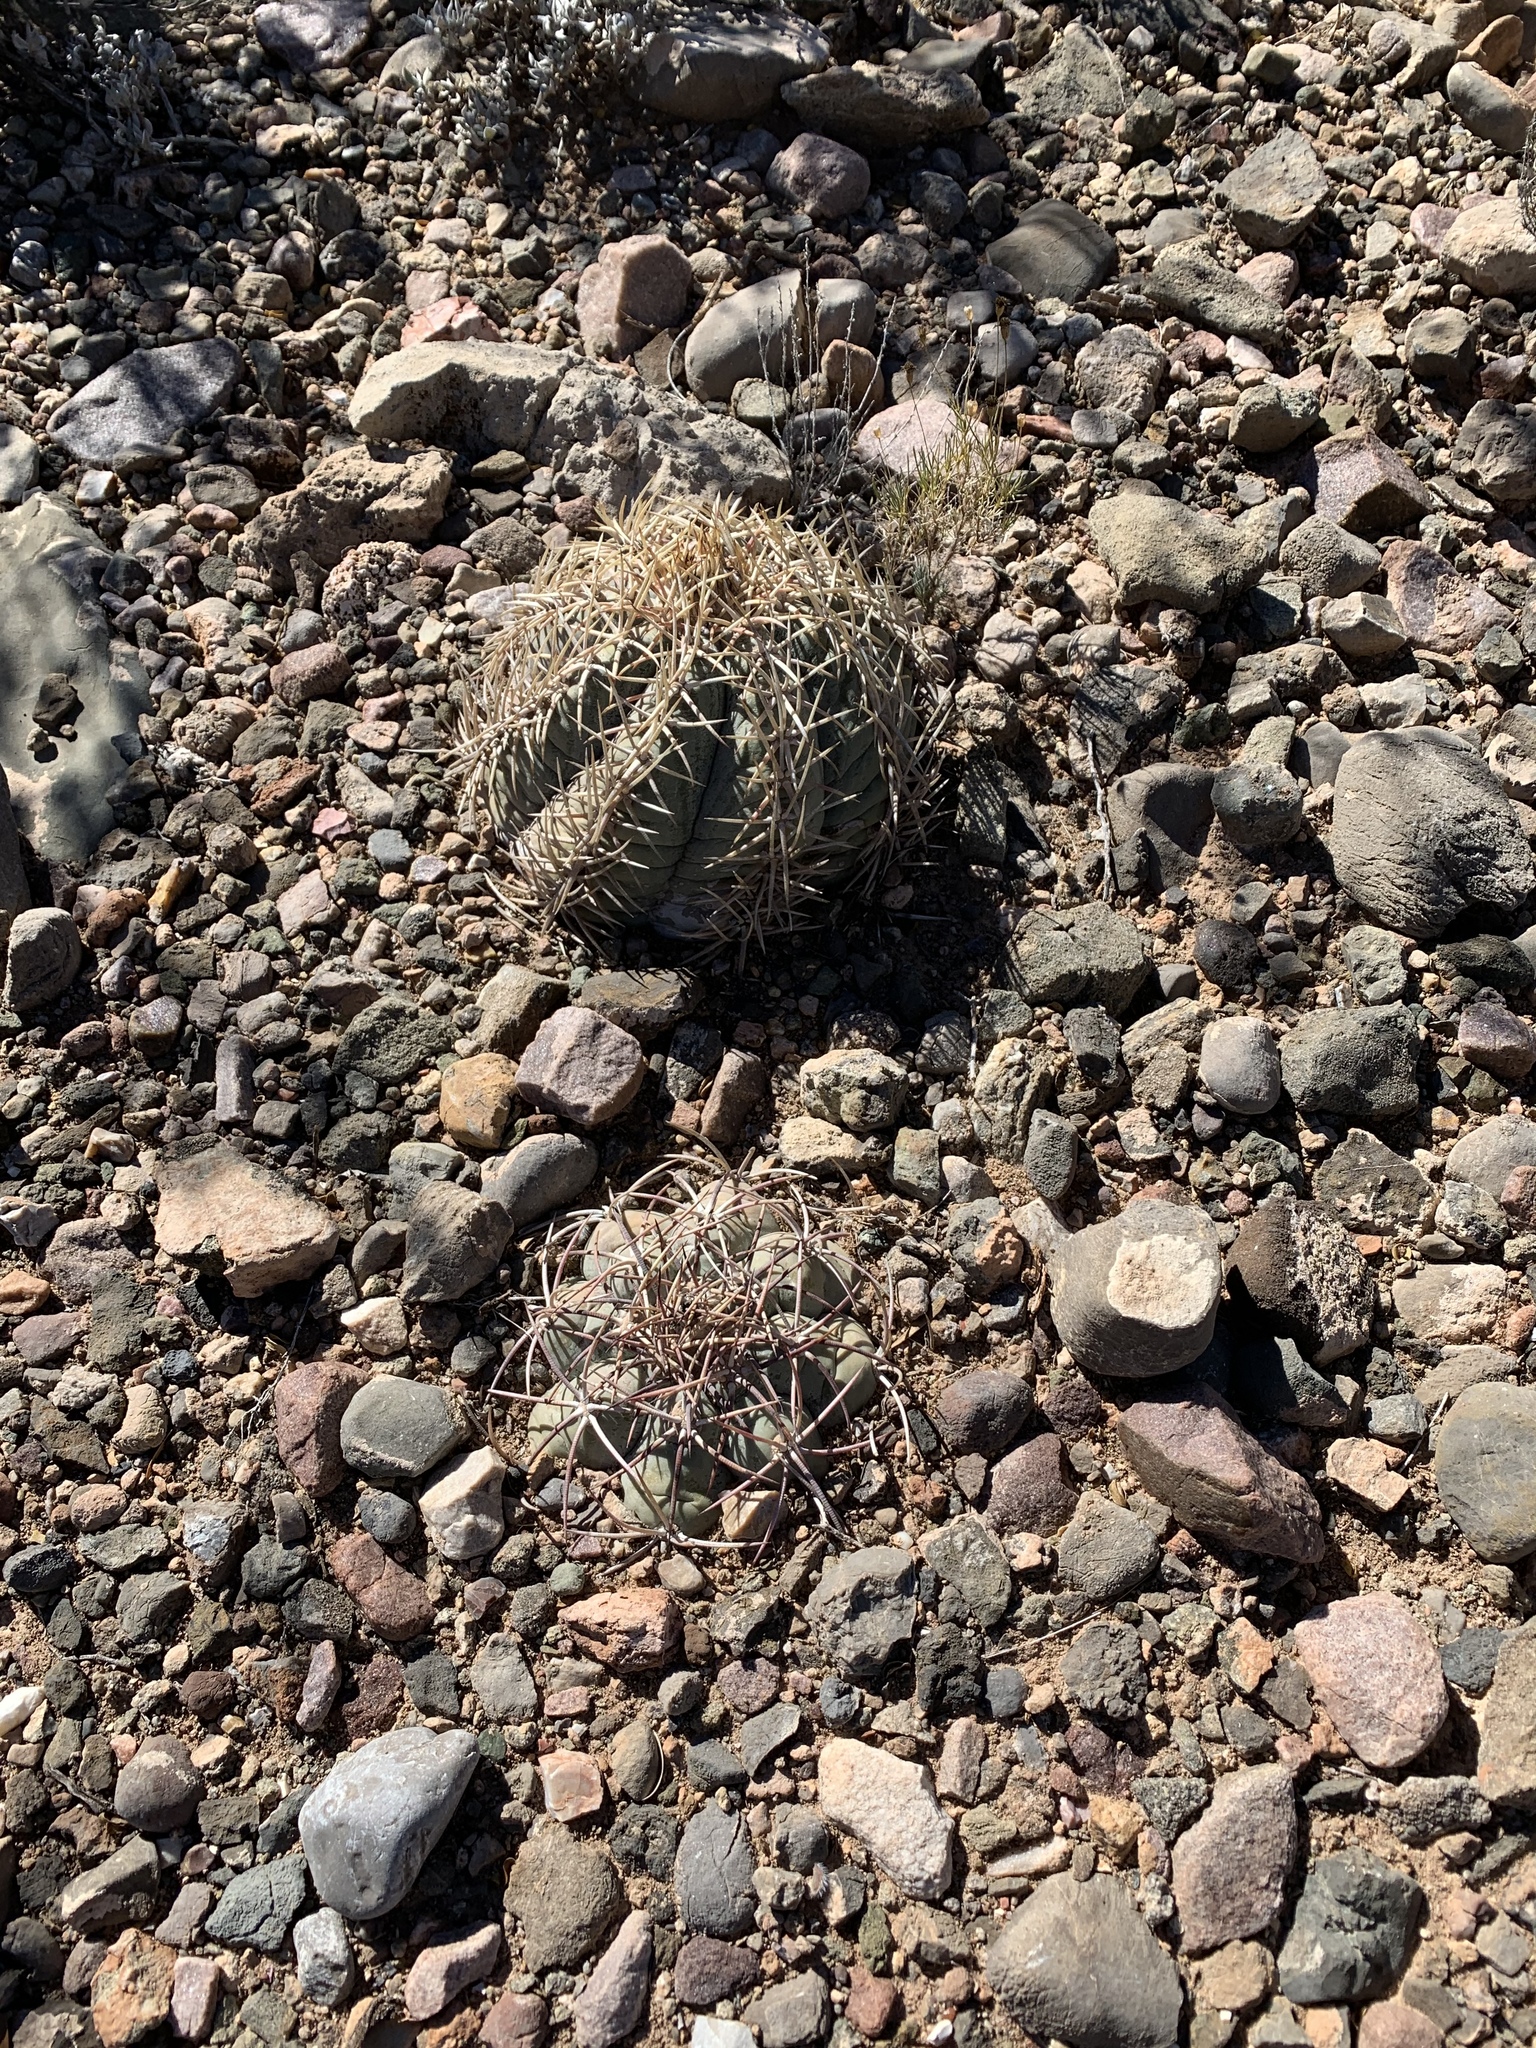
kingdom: Plantae
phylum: Tracheophyta
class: Magnoliopsida
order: Caryophyllales
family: Cactaceae
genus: Echinocactus
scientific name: Echinocactus horizonthalonius
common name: Devilshead
